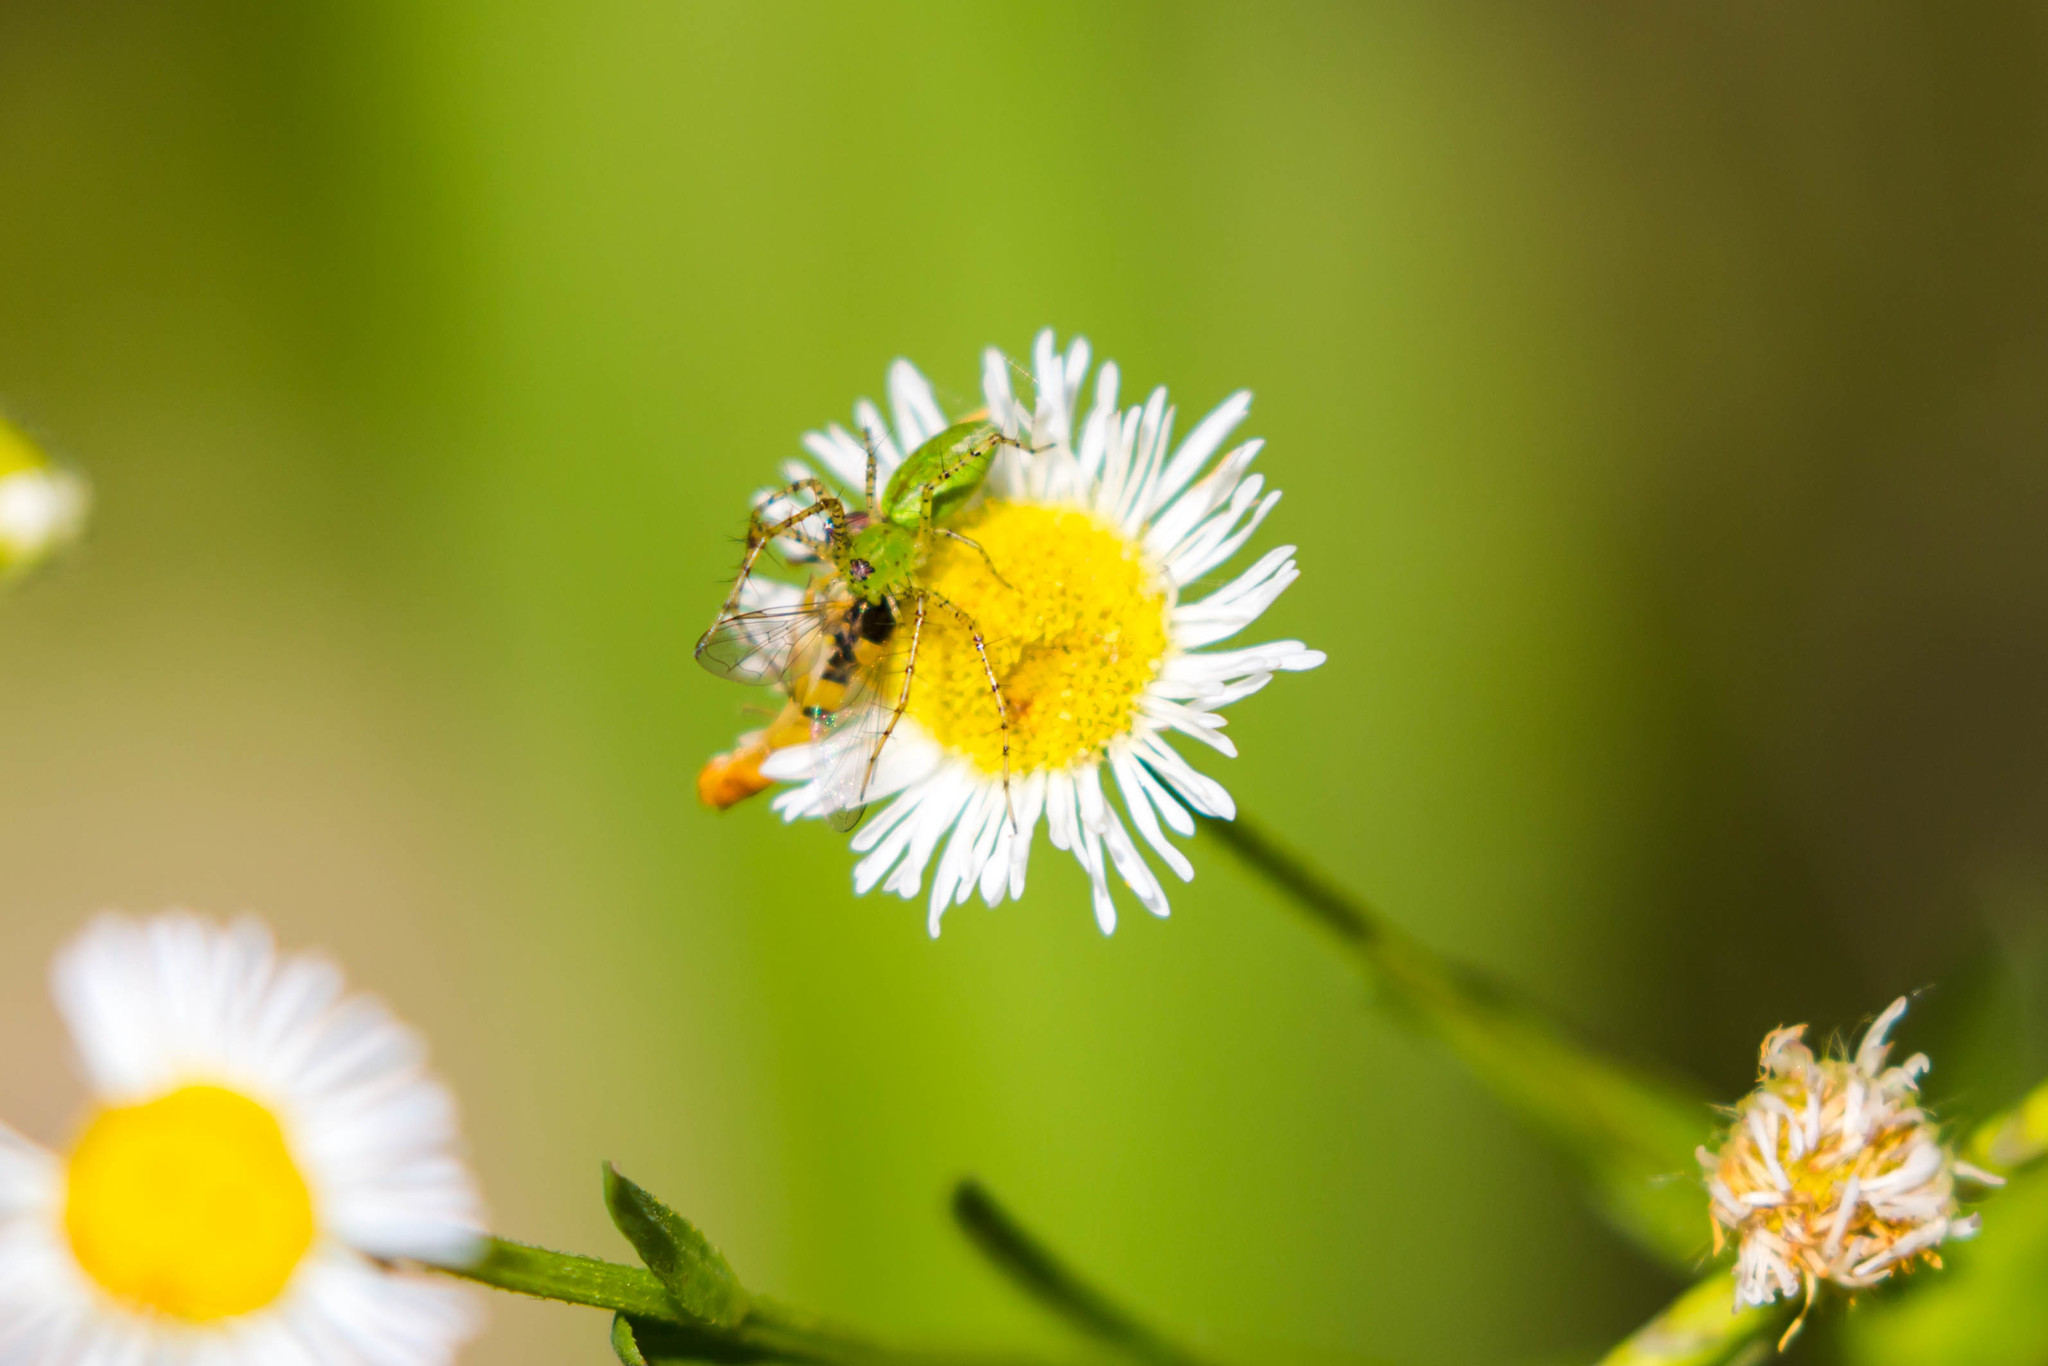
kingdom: Animalia
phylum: Arthropoda
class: Arachnida
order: Araneae
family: Oxyopidae
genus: Peucetia
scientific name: Peucetia viridans
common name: Lynx spiders
